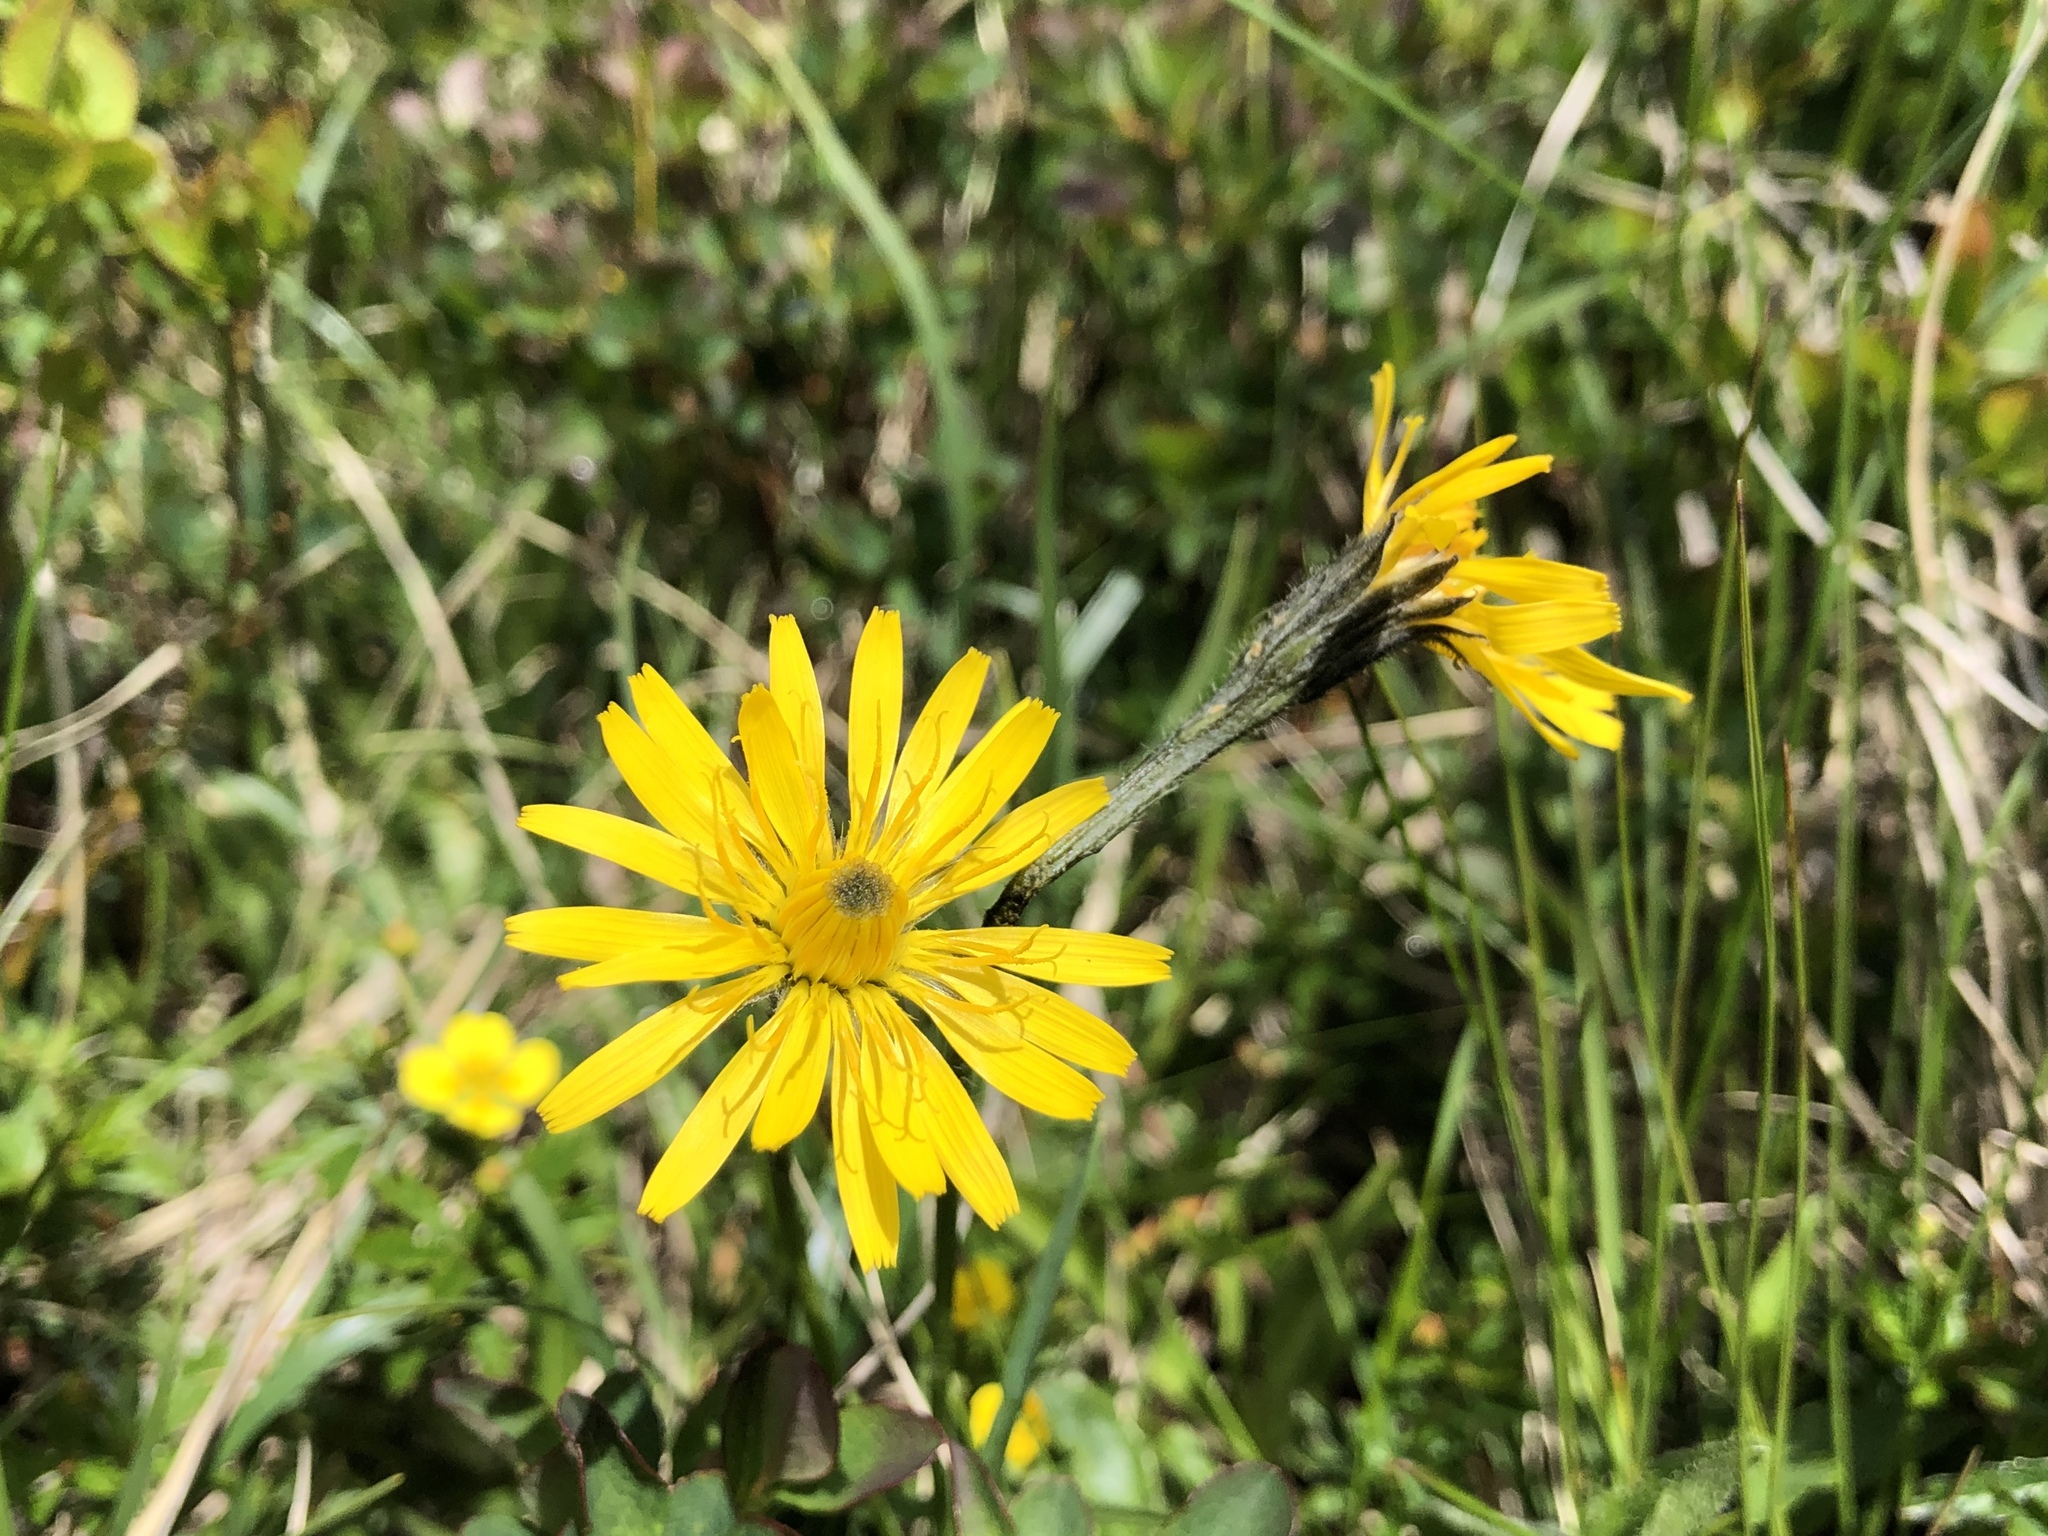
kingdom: Plantae
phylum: Tracheophyta
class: Magnoliopsida
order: Asterales
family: Asteraceae
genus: Scorzoneroides
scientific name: Scorzoneroides helvetica
